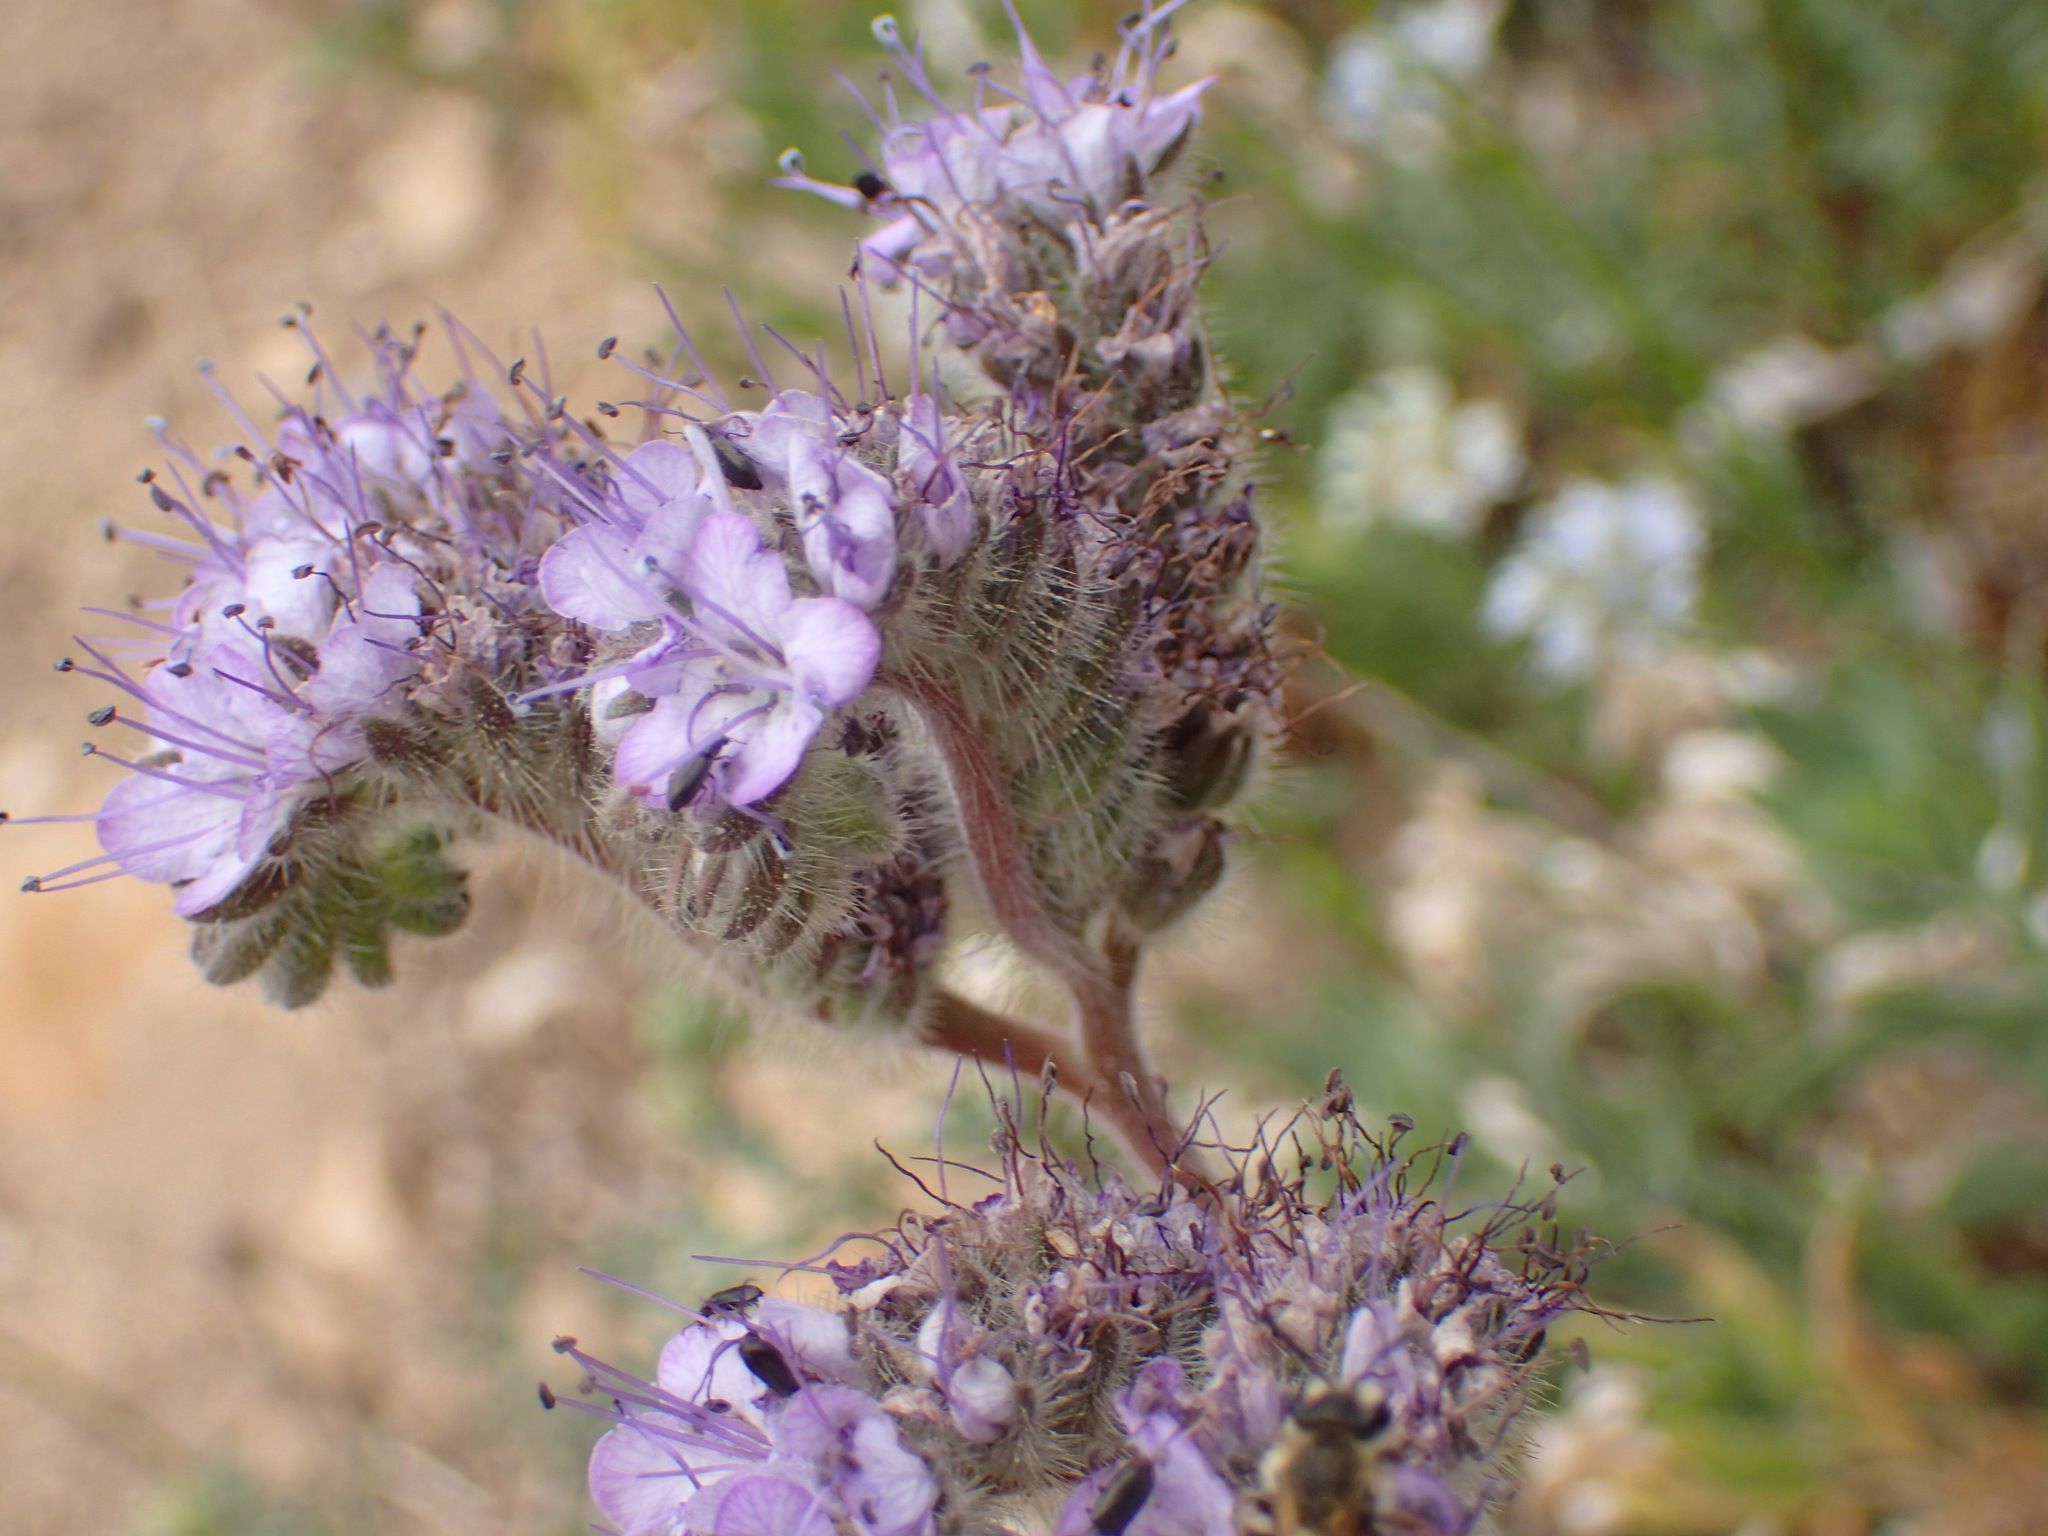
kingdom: Plantae
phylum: Tracheophyta
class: Magnoliopsida
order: Boraginales
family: Hydrophyllaceae
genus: Phacelia
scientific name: Phacelia tanacetifolia
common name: Phacelia
